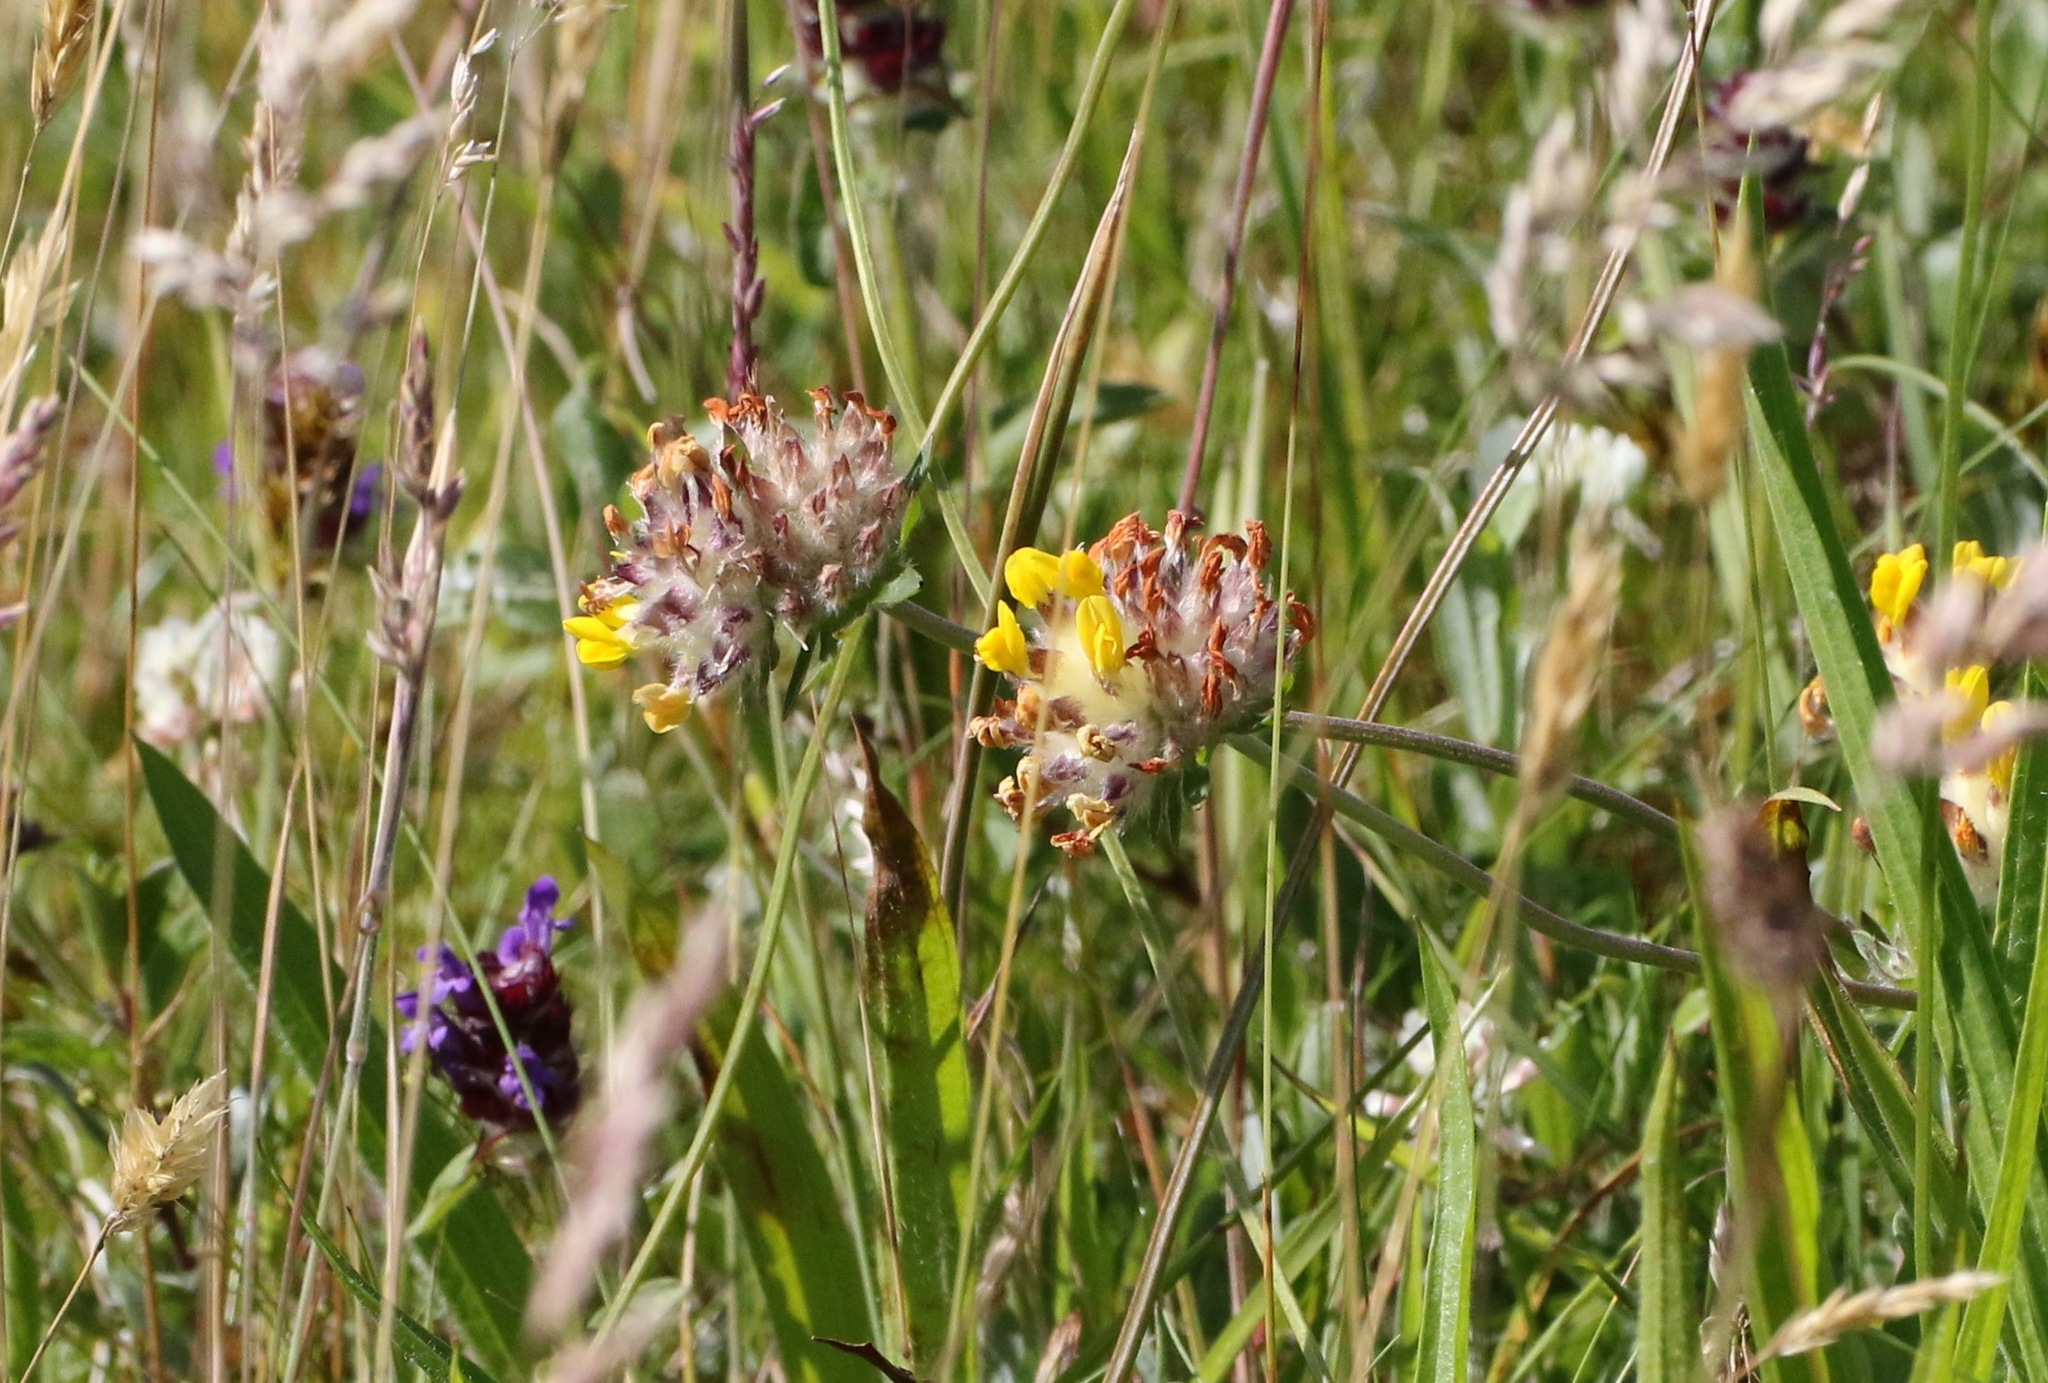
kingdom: Plantae
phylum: Tracheophyta
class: Magnoliopsida
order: Fabales
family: Fabaceae
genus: Anthyllis
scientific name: Anthyllis vulneraria
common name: Kidney vetch
